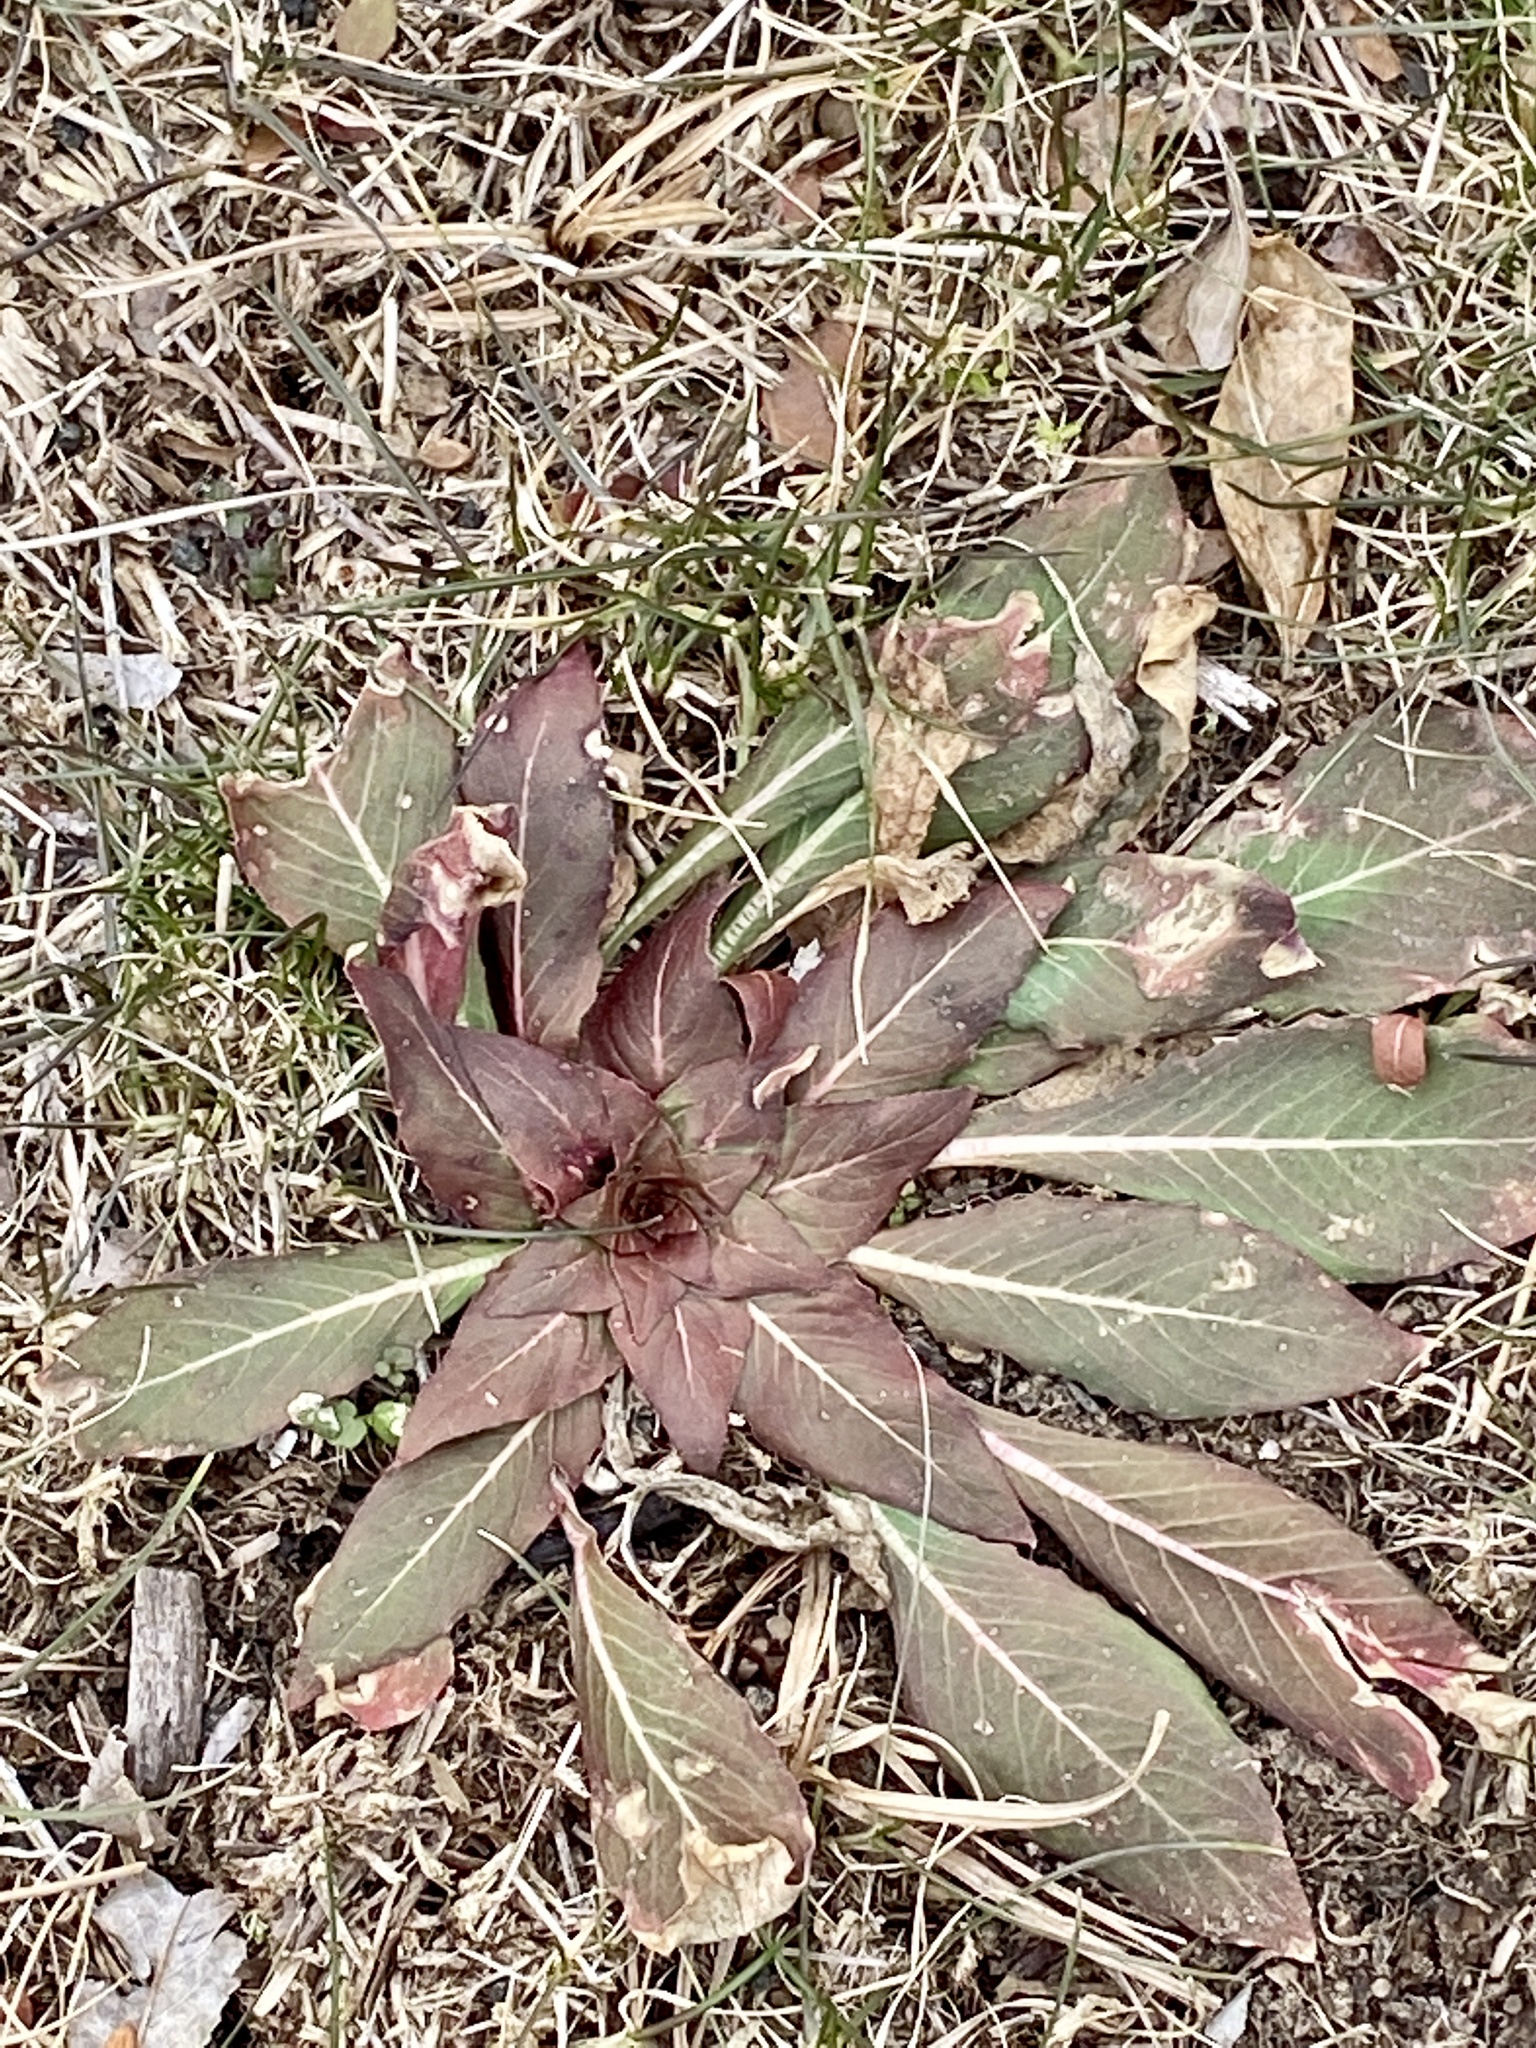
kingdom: Plantae
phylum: Tracheophyta
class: Magnoliopsida
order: Myrtales
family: Onagraceae
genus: Oenothera
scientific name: Oenothera biennis
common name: Common evening-primrose
